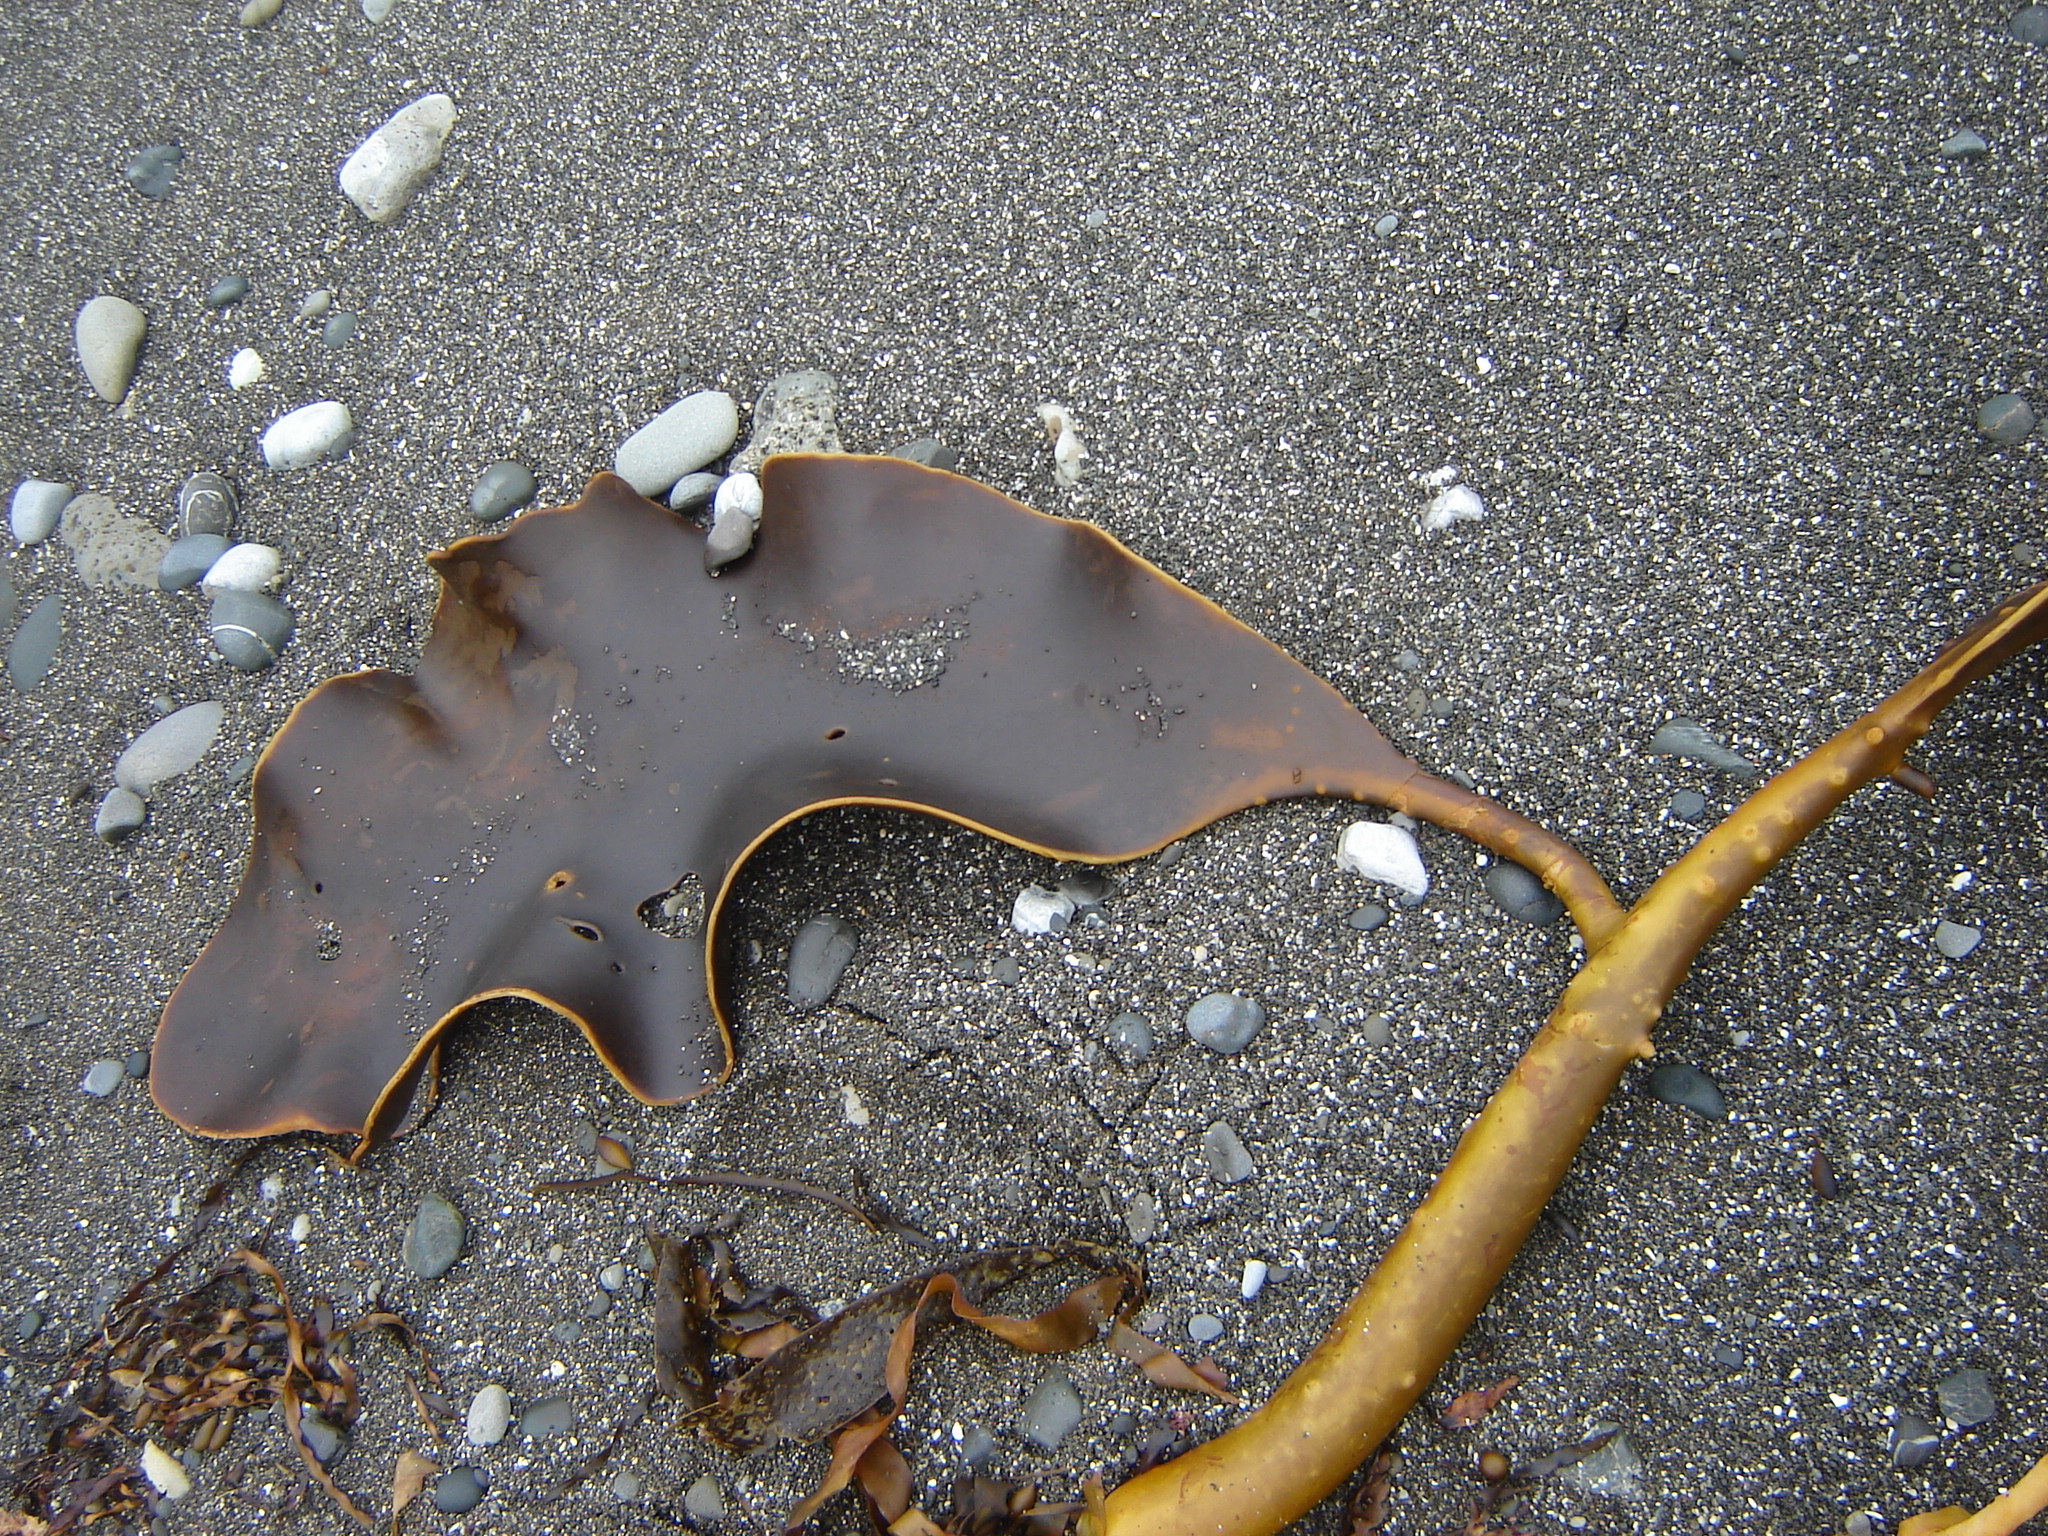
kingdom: Chromista
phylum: Ochrophyta
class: Phaeophyceae
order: Fucales
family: Durvillaeaceae
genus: Durvillaea
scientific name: Durvillaea willana
